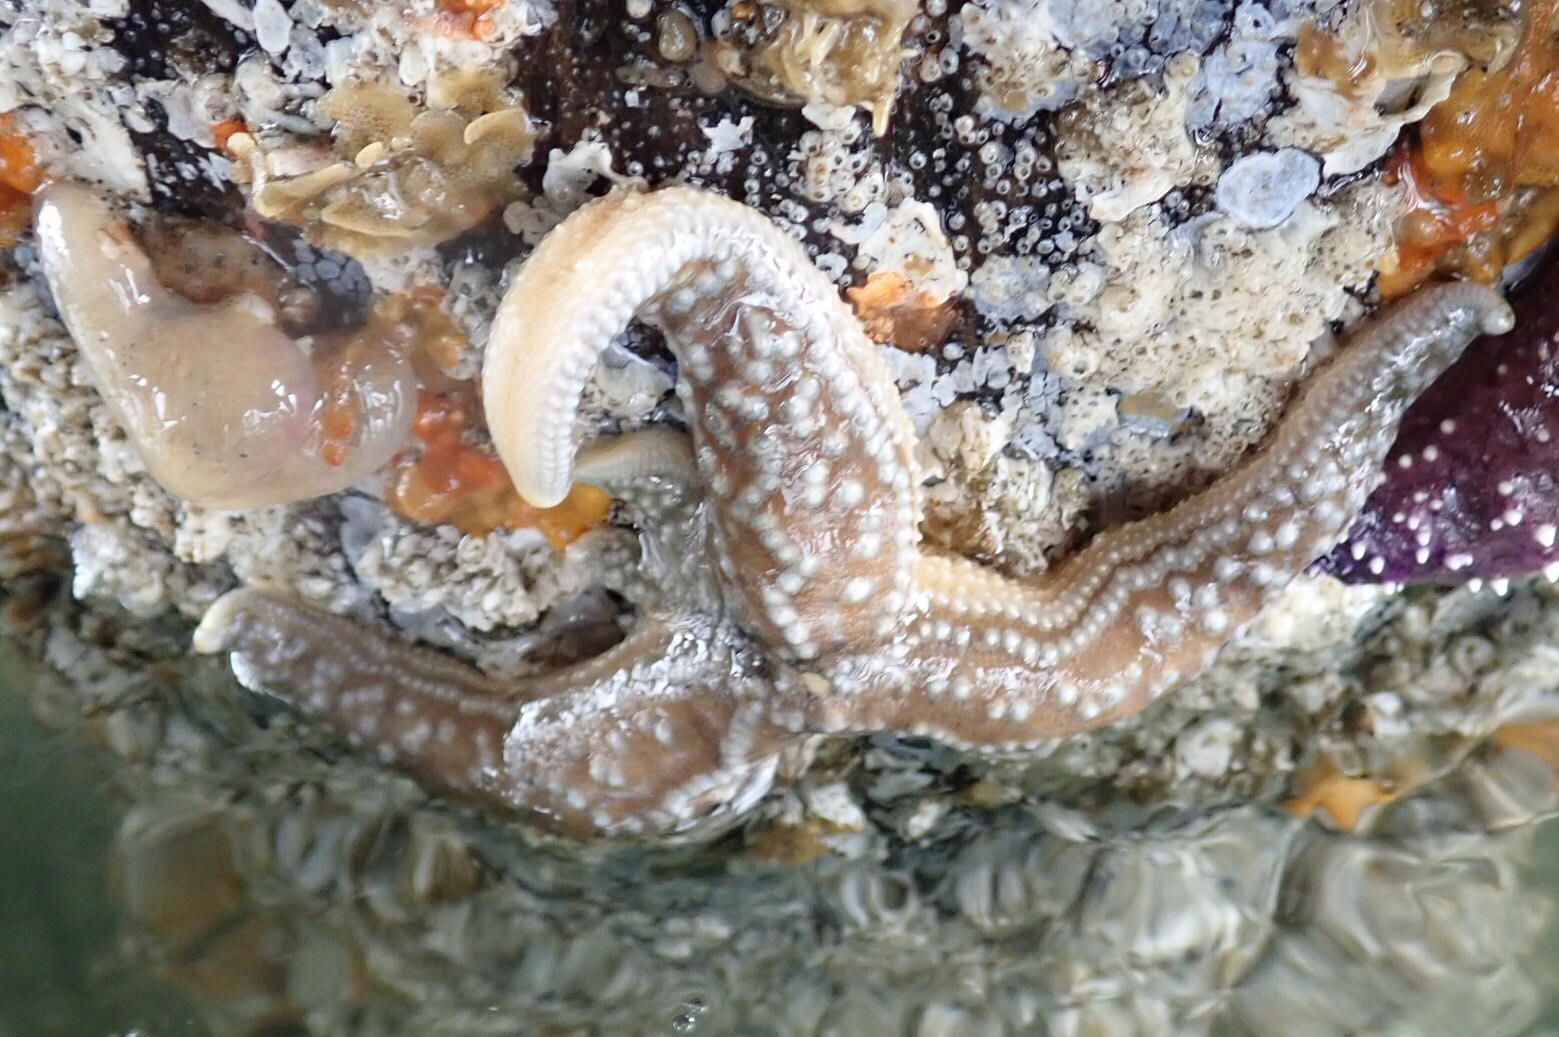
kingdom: Animalia
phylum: Echinodermata
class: Asteroidea
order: Forcipulatida
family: Asteriidae
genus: Evasterias
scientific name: Evasterias troschelii
